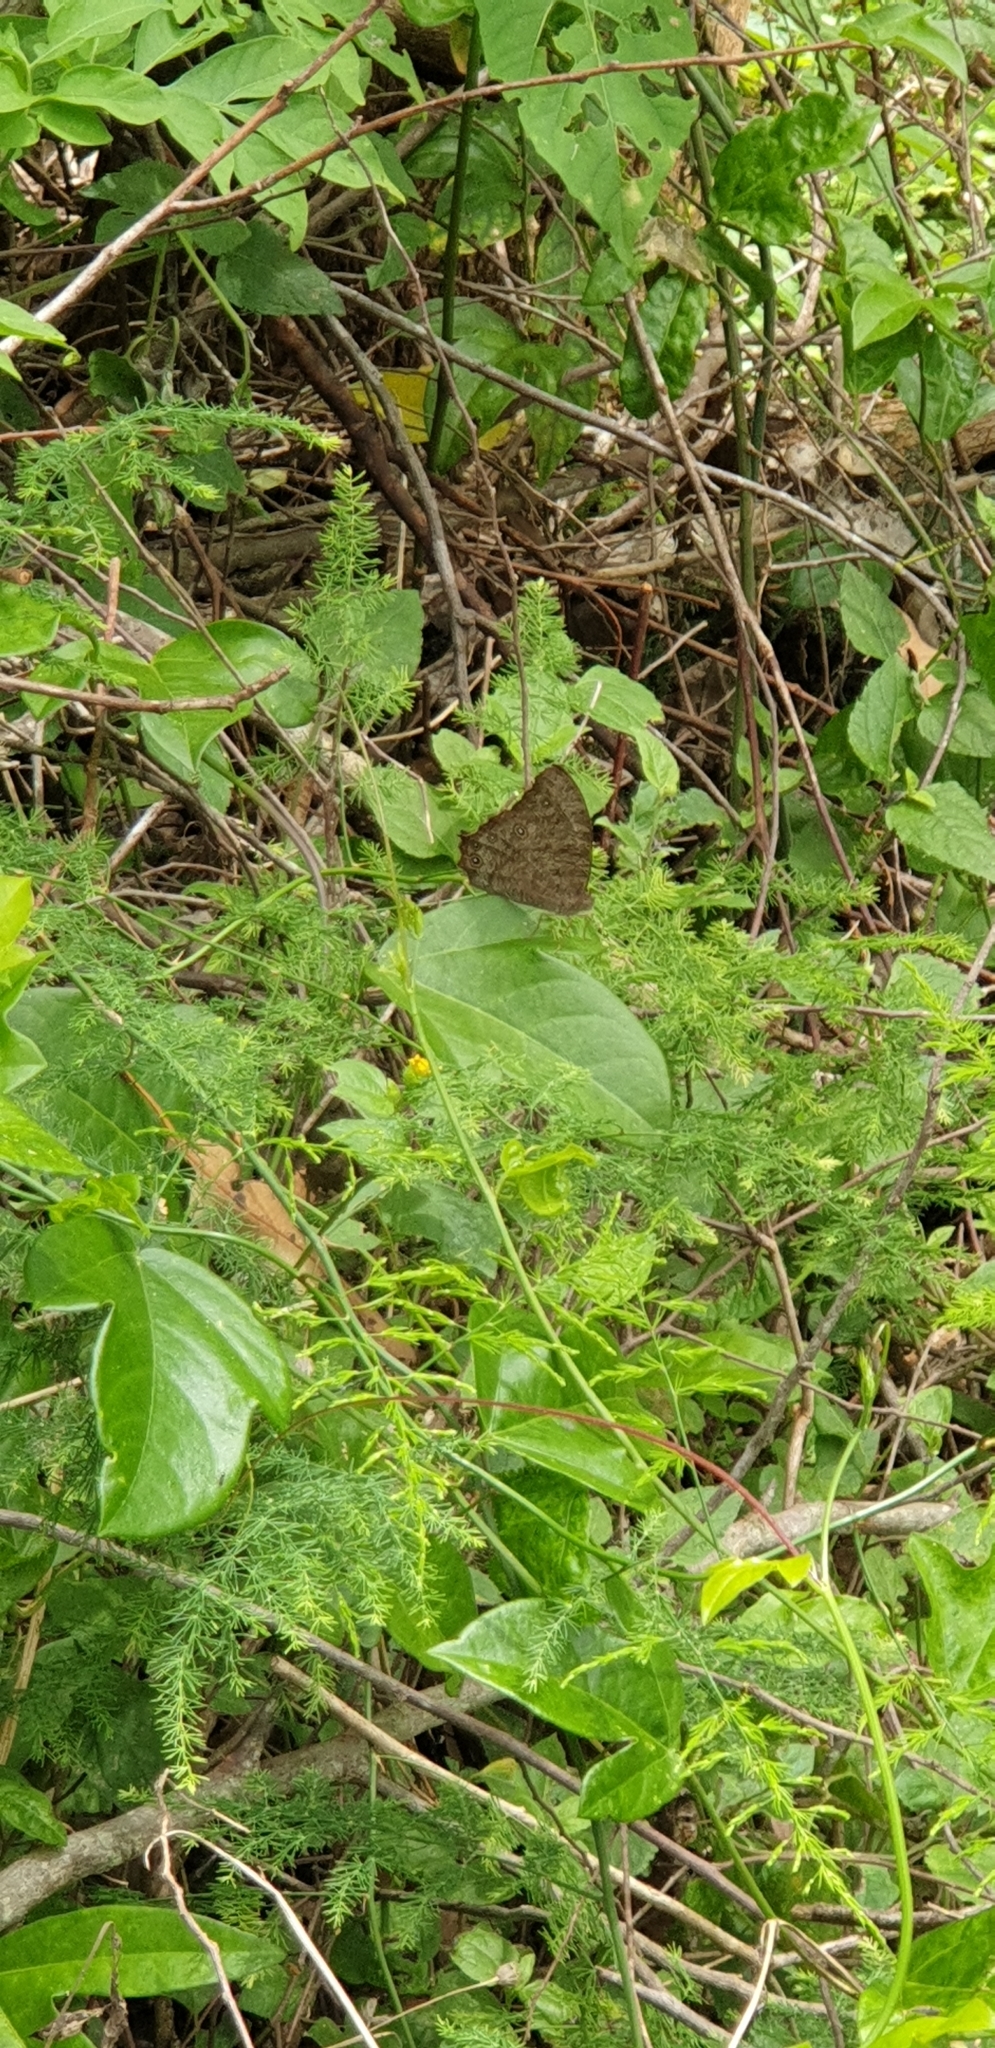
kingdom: Animalia
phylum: Arthropoda
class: Insecta
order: Lepidoptera
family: Nymphalidae
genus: Melanitis
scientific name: Melanitis leda
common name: Twilight brown
